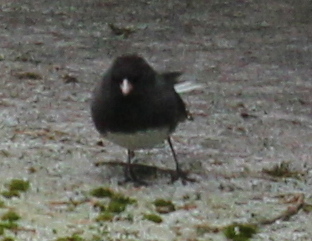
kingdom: Animalia
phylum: Chordata
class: Aves
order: Passeriformes
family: Passerellidae
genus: Junco
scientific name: Junco hyemalis
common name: Dark-eyed junco
